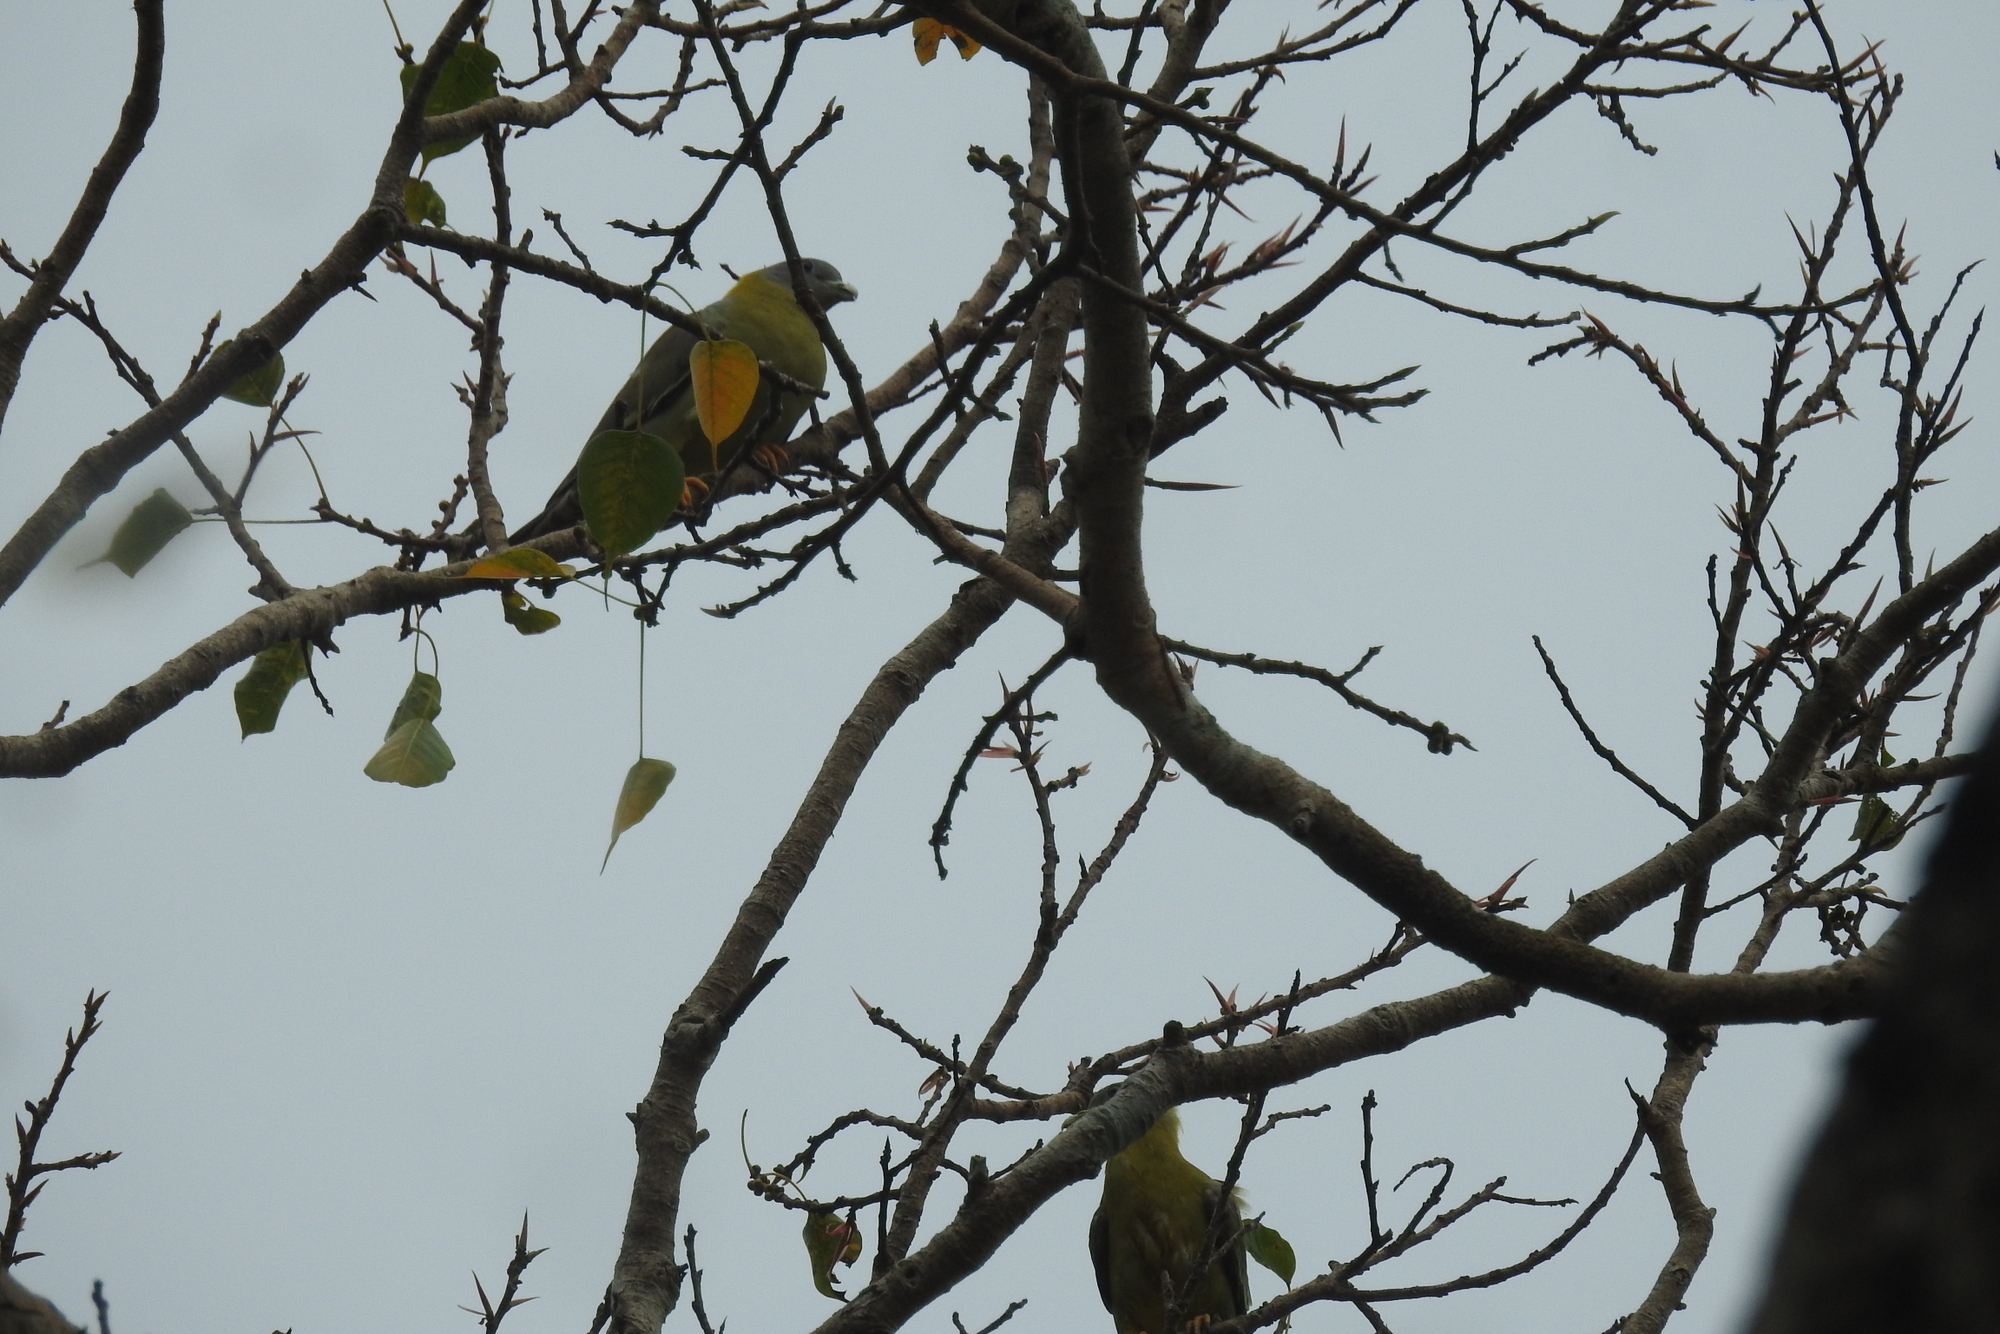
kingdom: Animalia
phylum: Chordata
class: Aves
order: Columbiformes
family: Columbidae
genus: Treron
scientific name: Treron phoenicopterus
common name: Yellow-footed green pigeon
